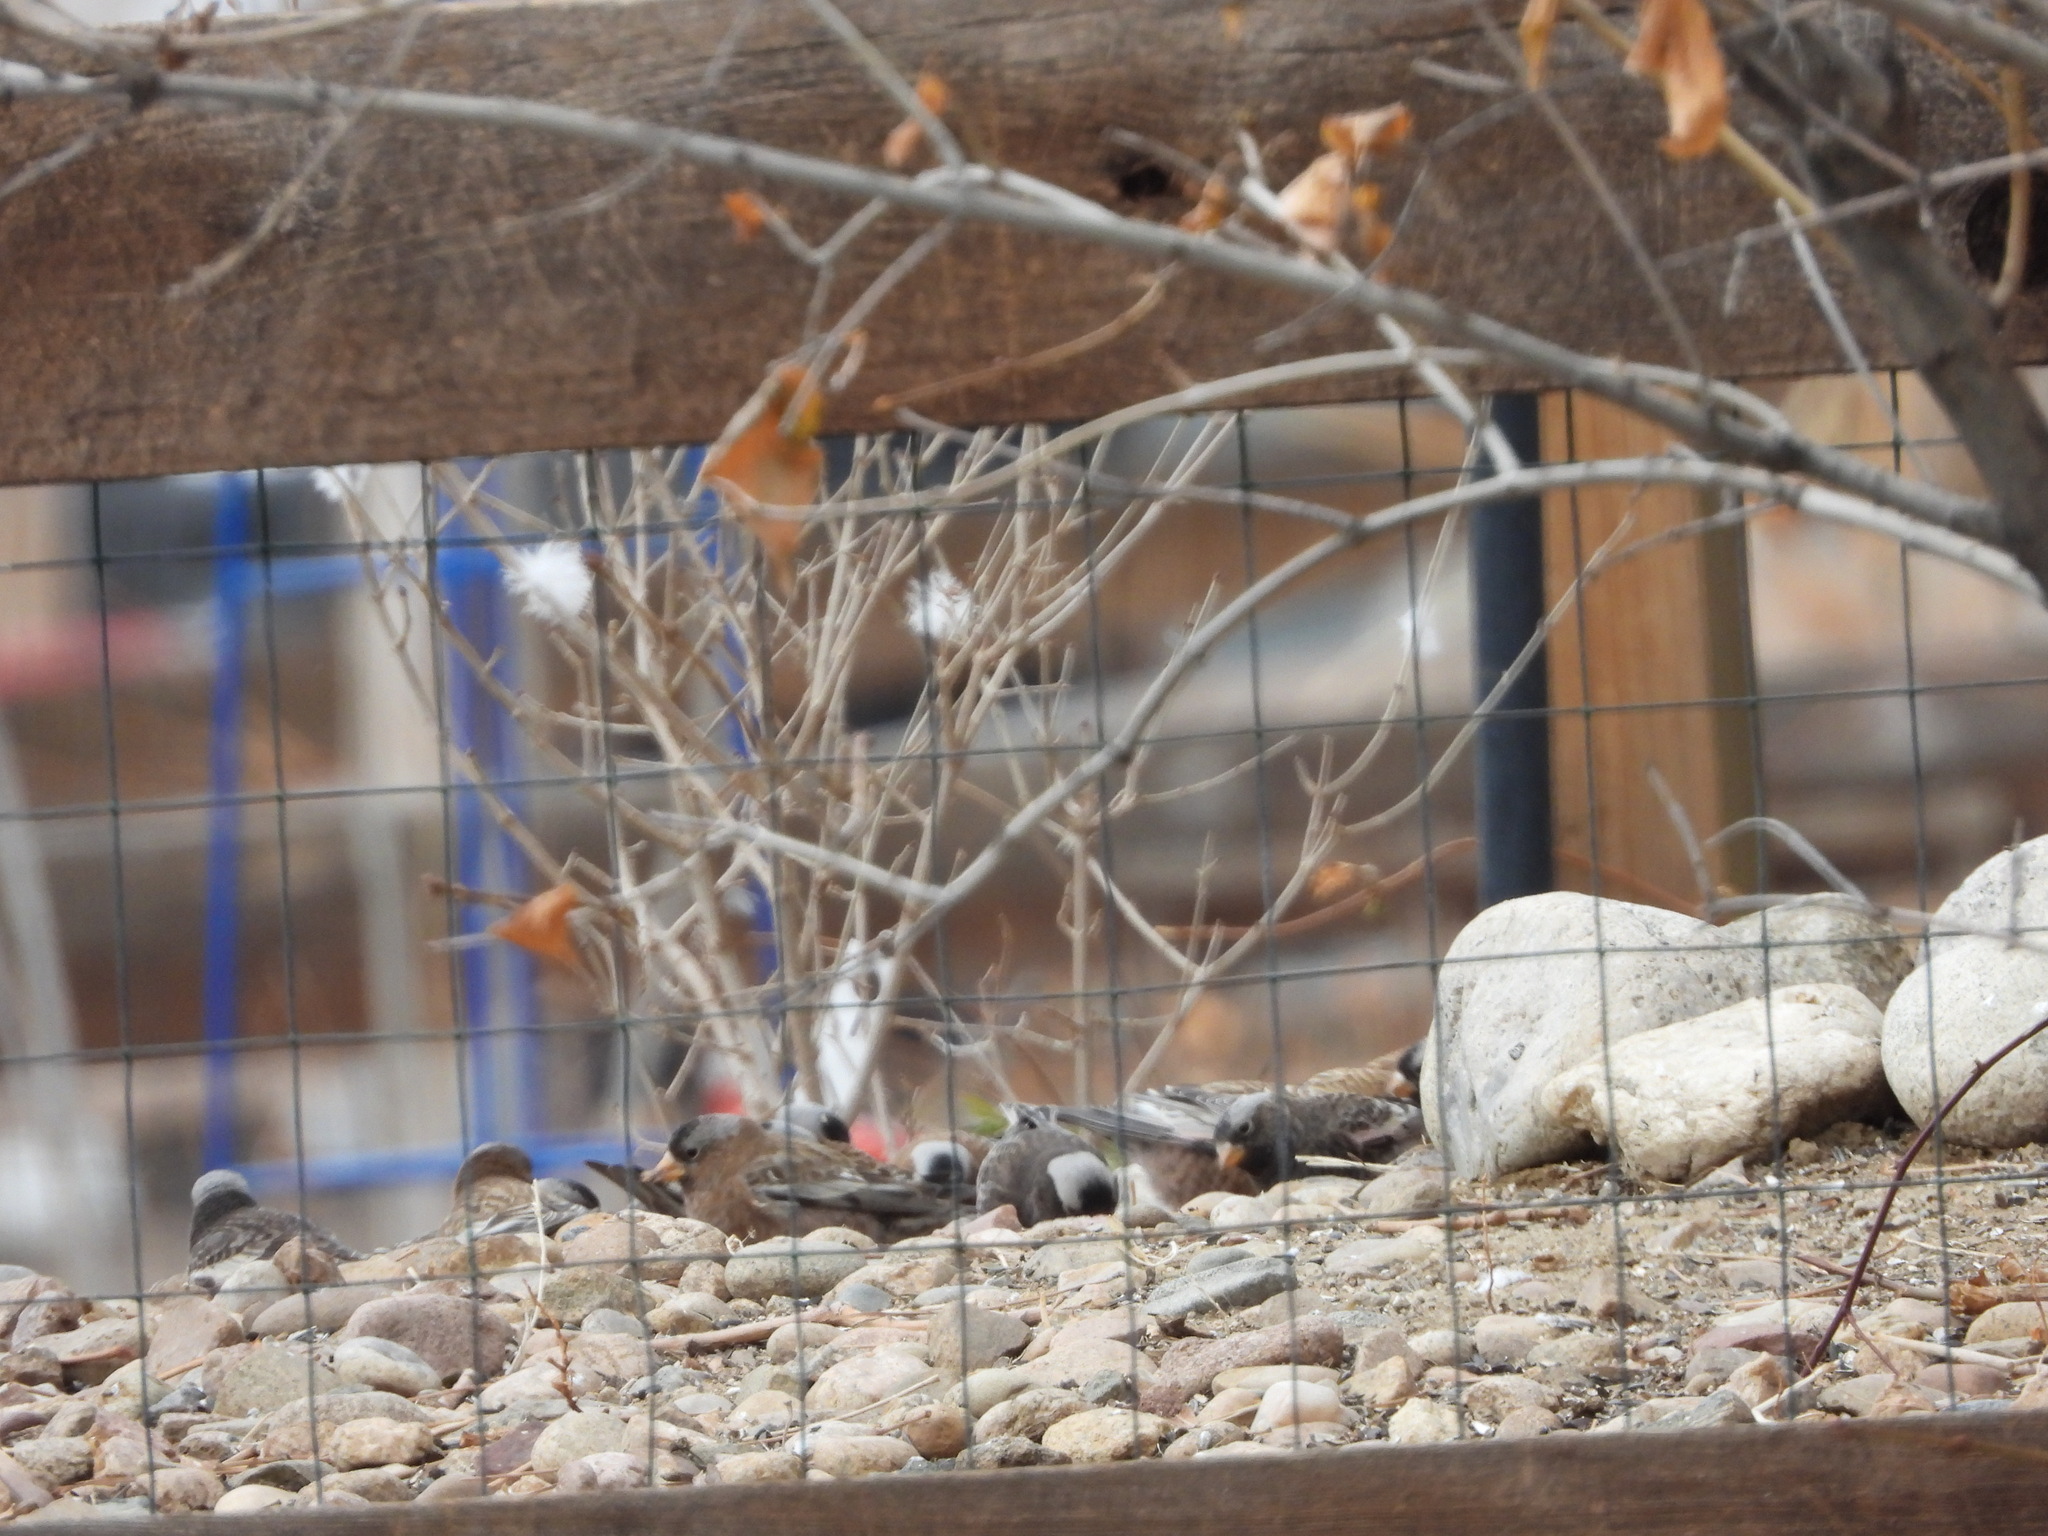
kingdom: Animalia
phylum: Chordata
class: Aves
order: Passeriformes
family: Fringillidae
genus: Leucosticte
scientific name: Leucosticte tephrocotis
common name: Gray-crowned rosy-finch
